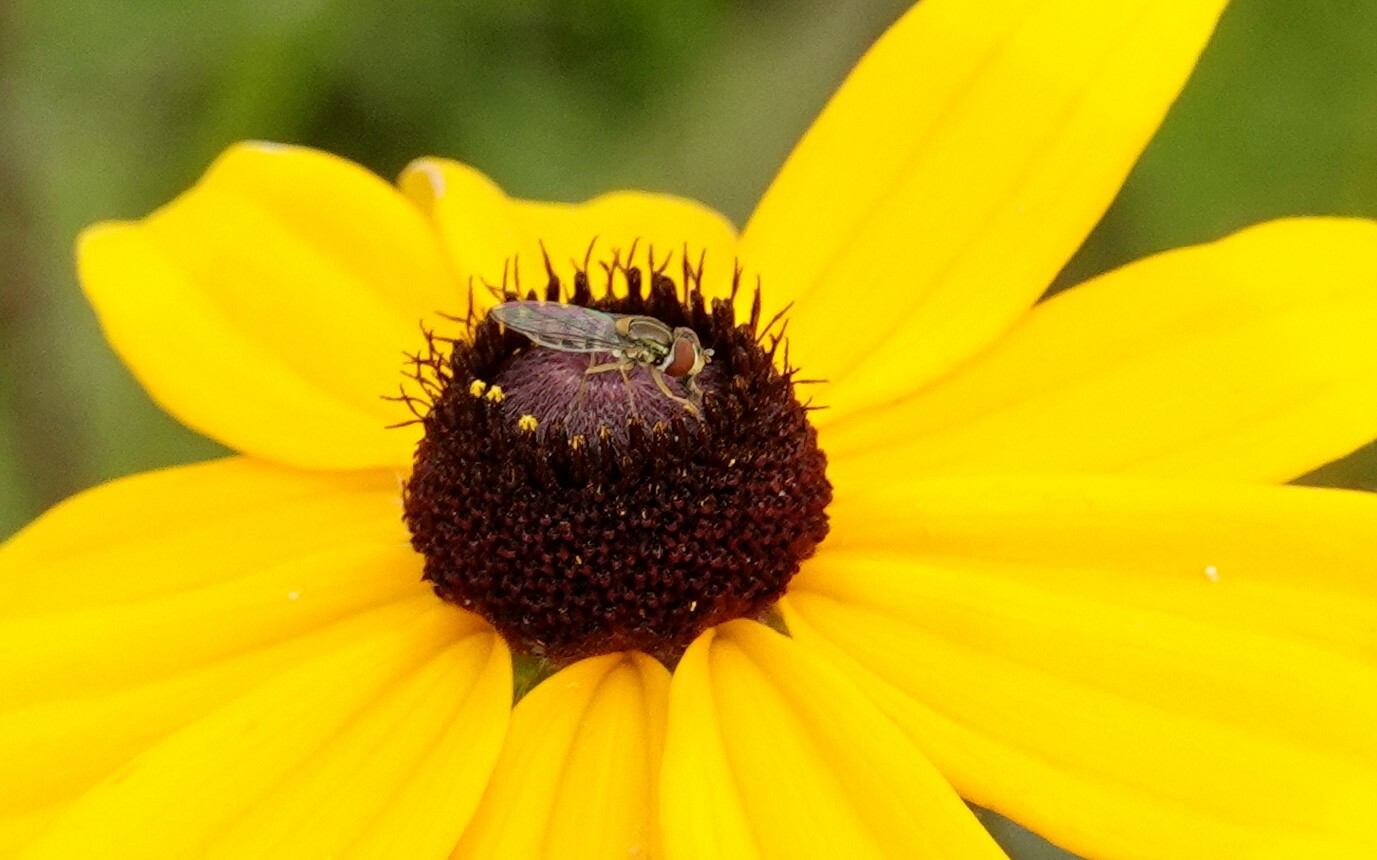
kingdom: Animalia
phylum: Arthropoda
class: Insecta
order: Diptera
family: Syrphidae
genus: Toxomerus
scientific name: Toxomerus marginatus
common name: Syrphid fly
